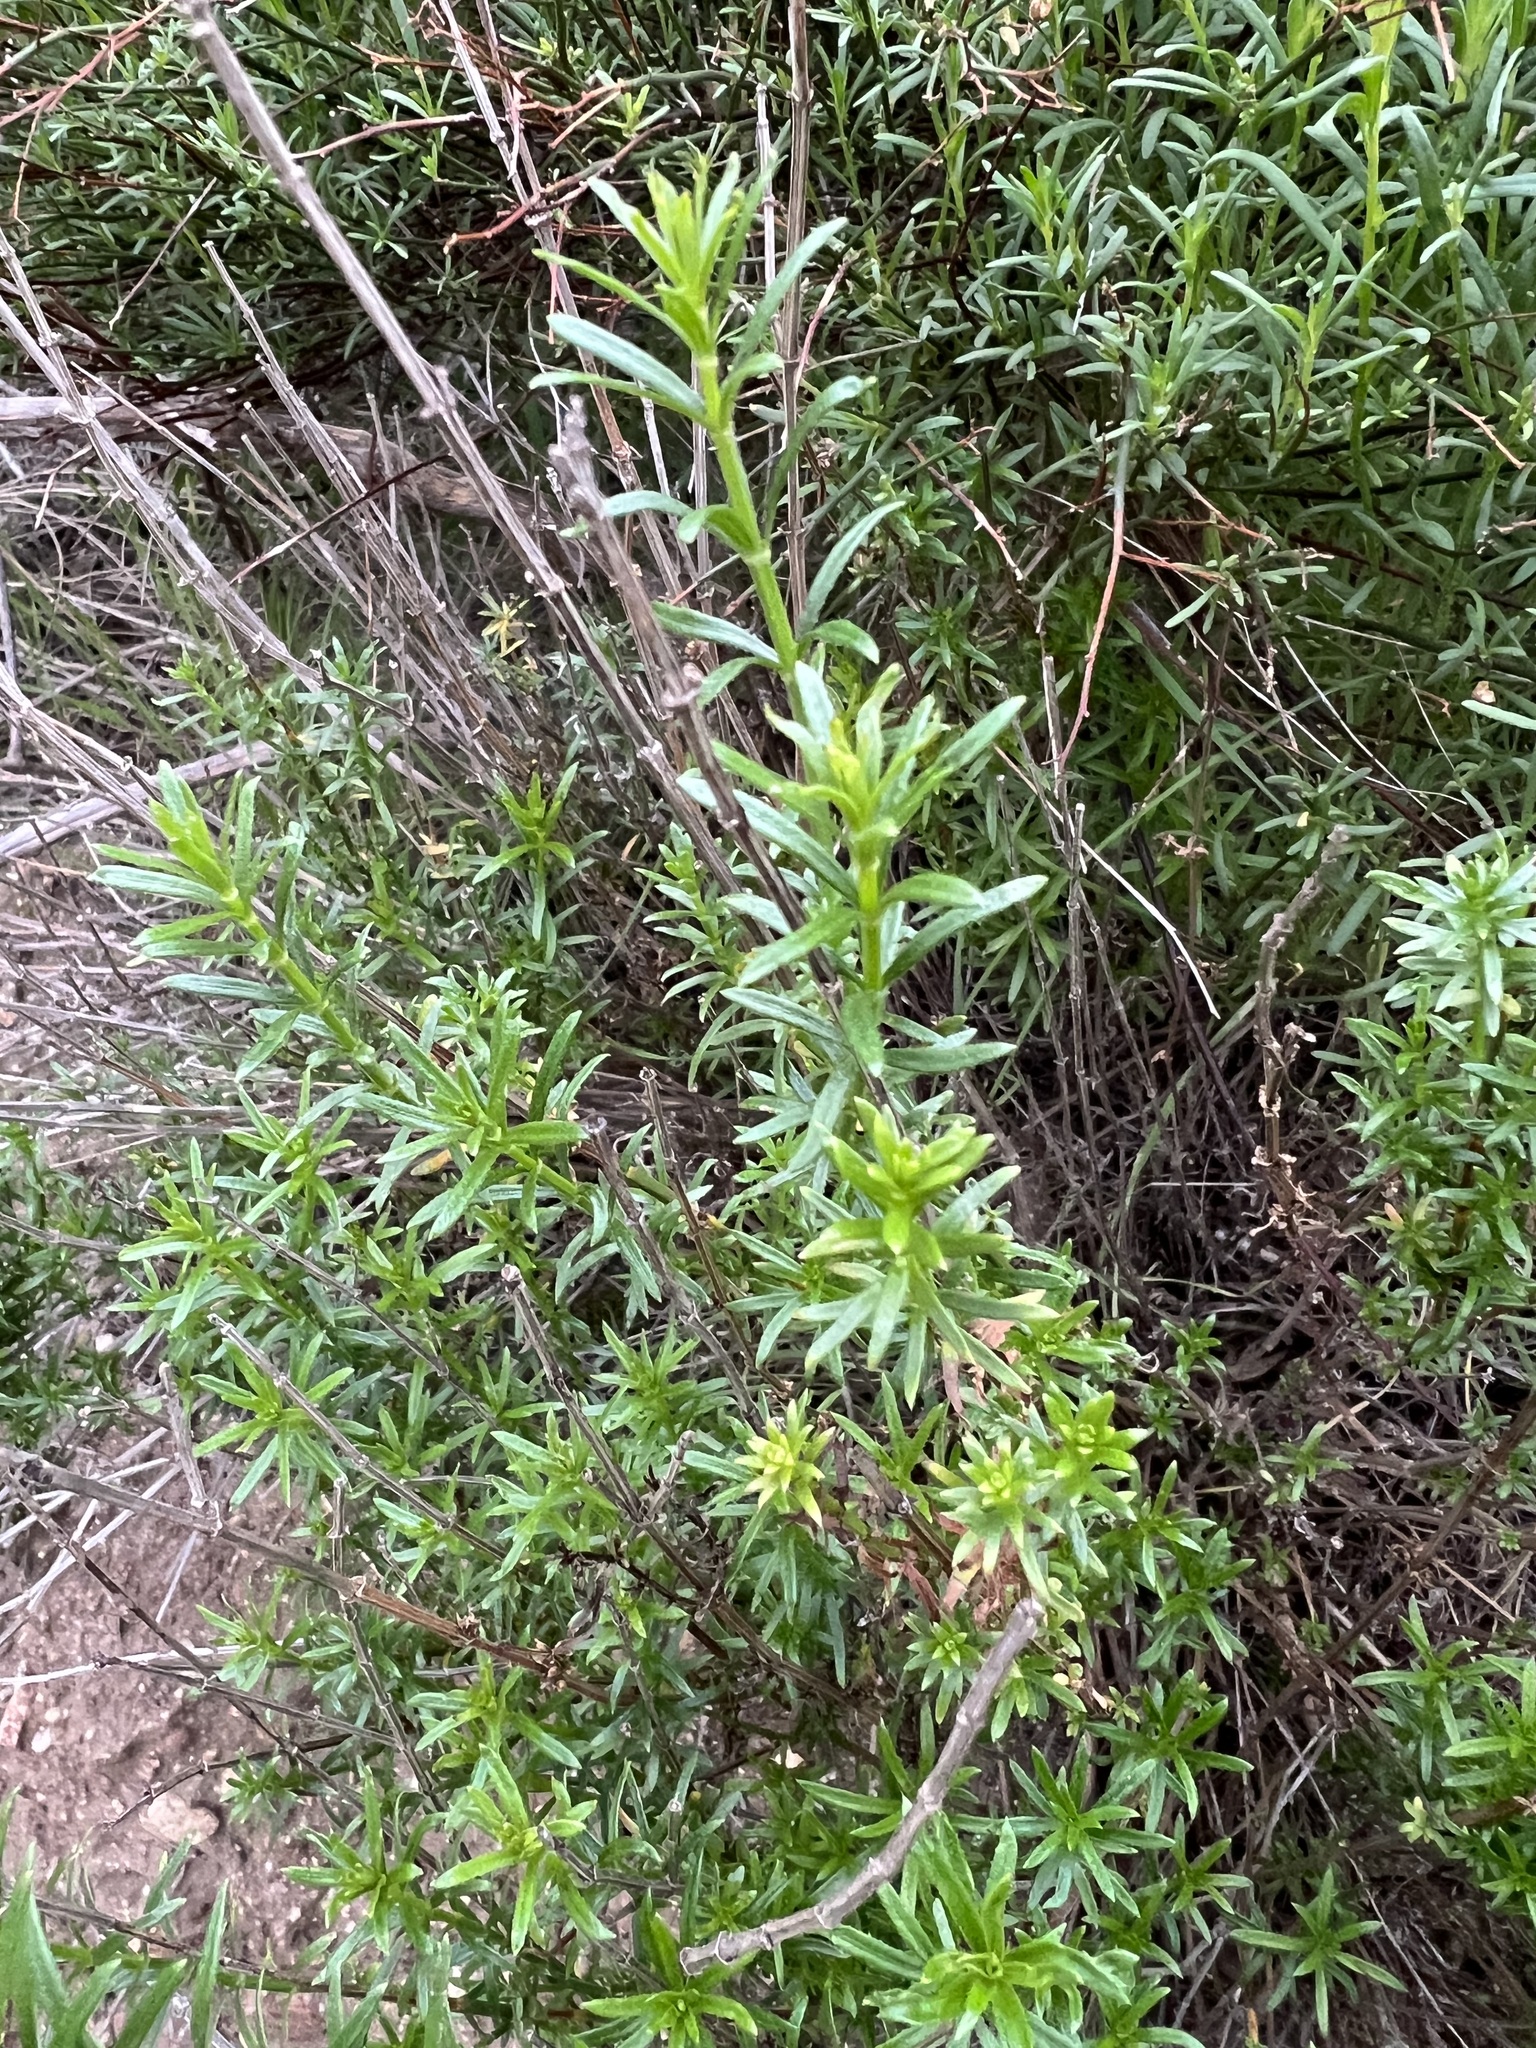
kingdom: Plantae
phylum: Tracheophyta
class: Magnoliopsida
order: Gentianales
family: Rubiaceae
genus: Galium
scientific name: Galium angustifolium
